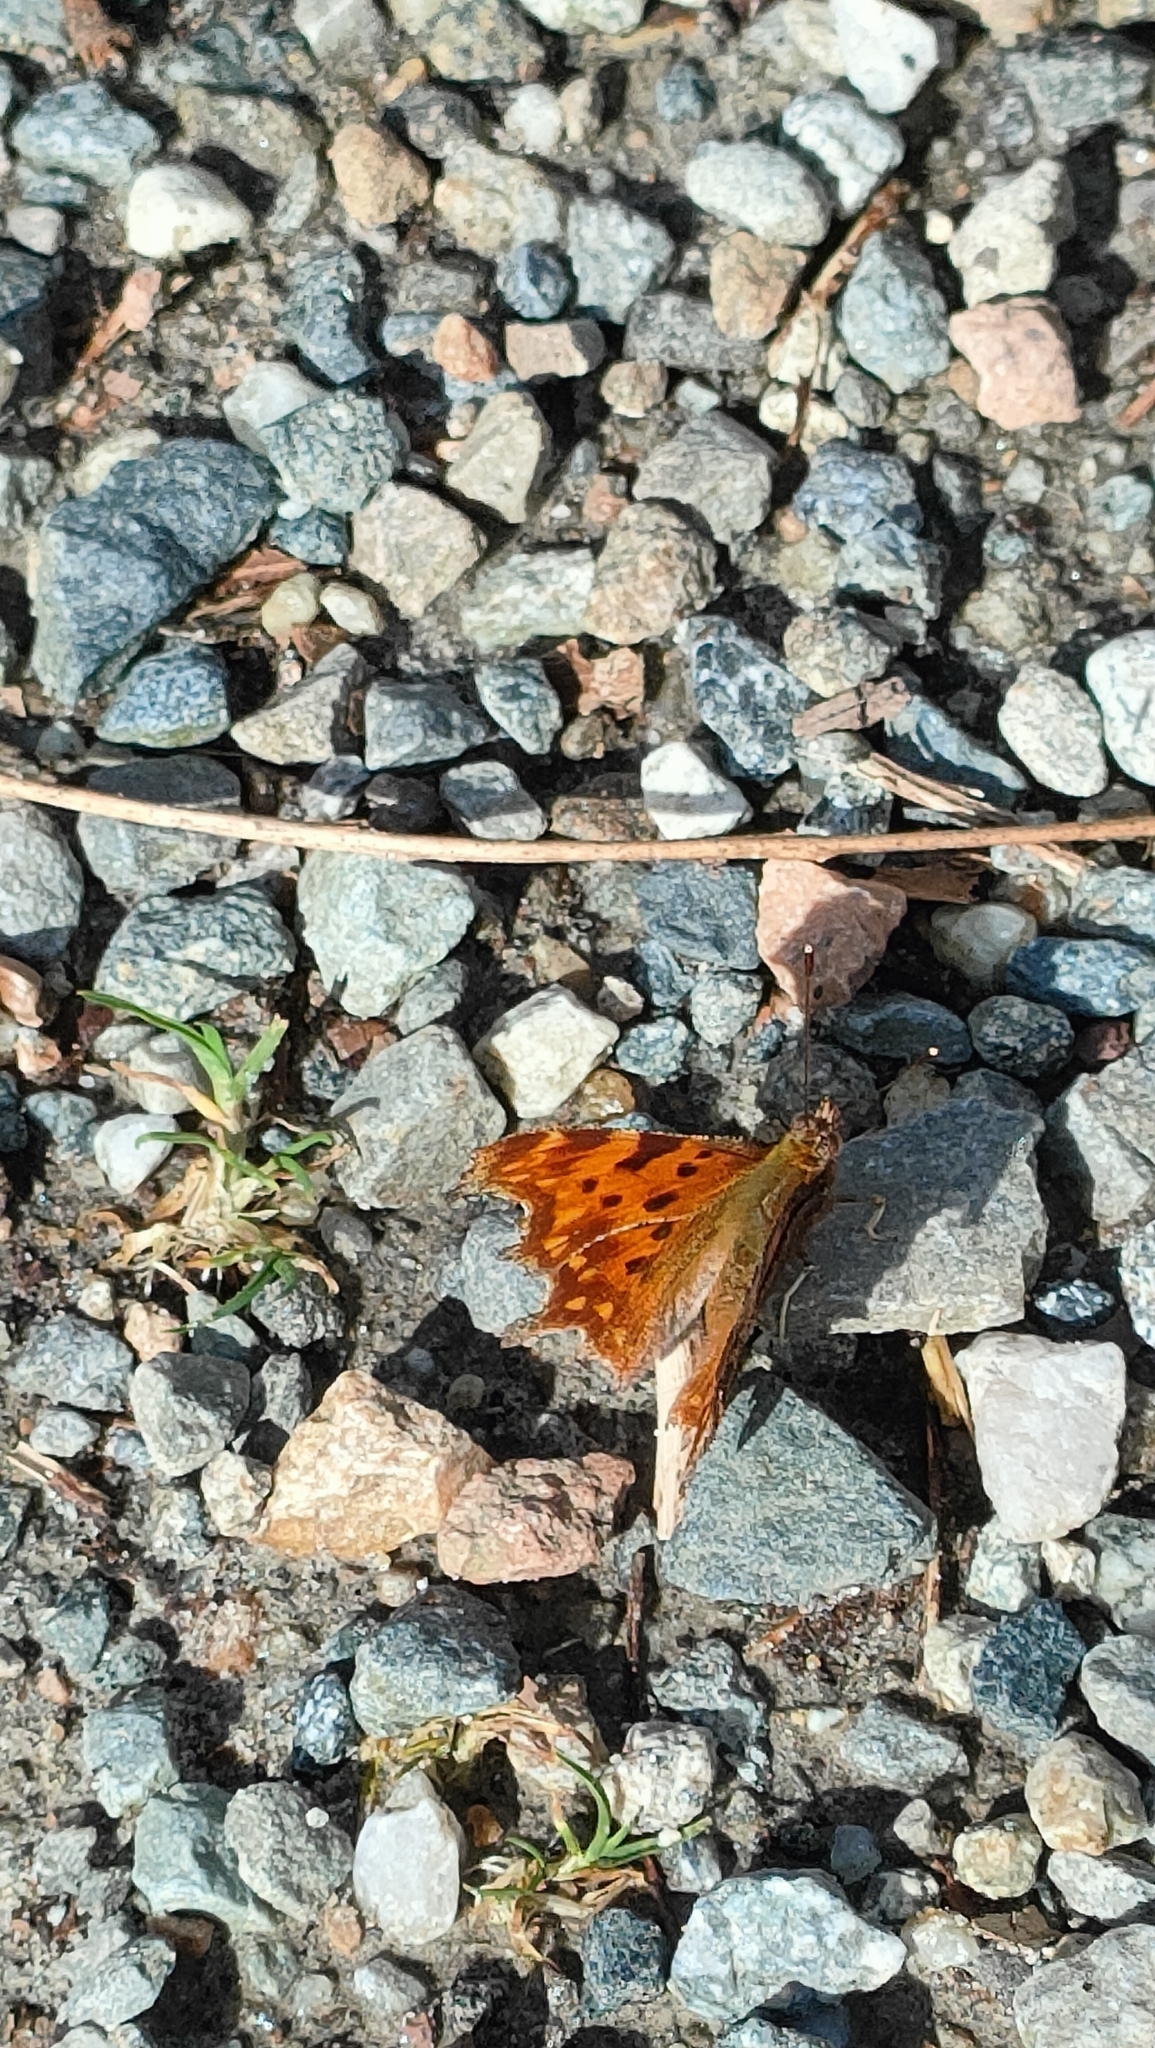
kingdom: Animalia
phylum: Arthropoda
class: Insecta
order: Lepidoptera
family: Nymphalidae
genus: Polygonia
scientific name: Polygonia c-album
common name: Comma
